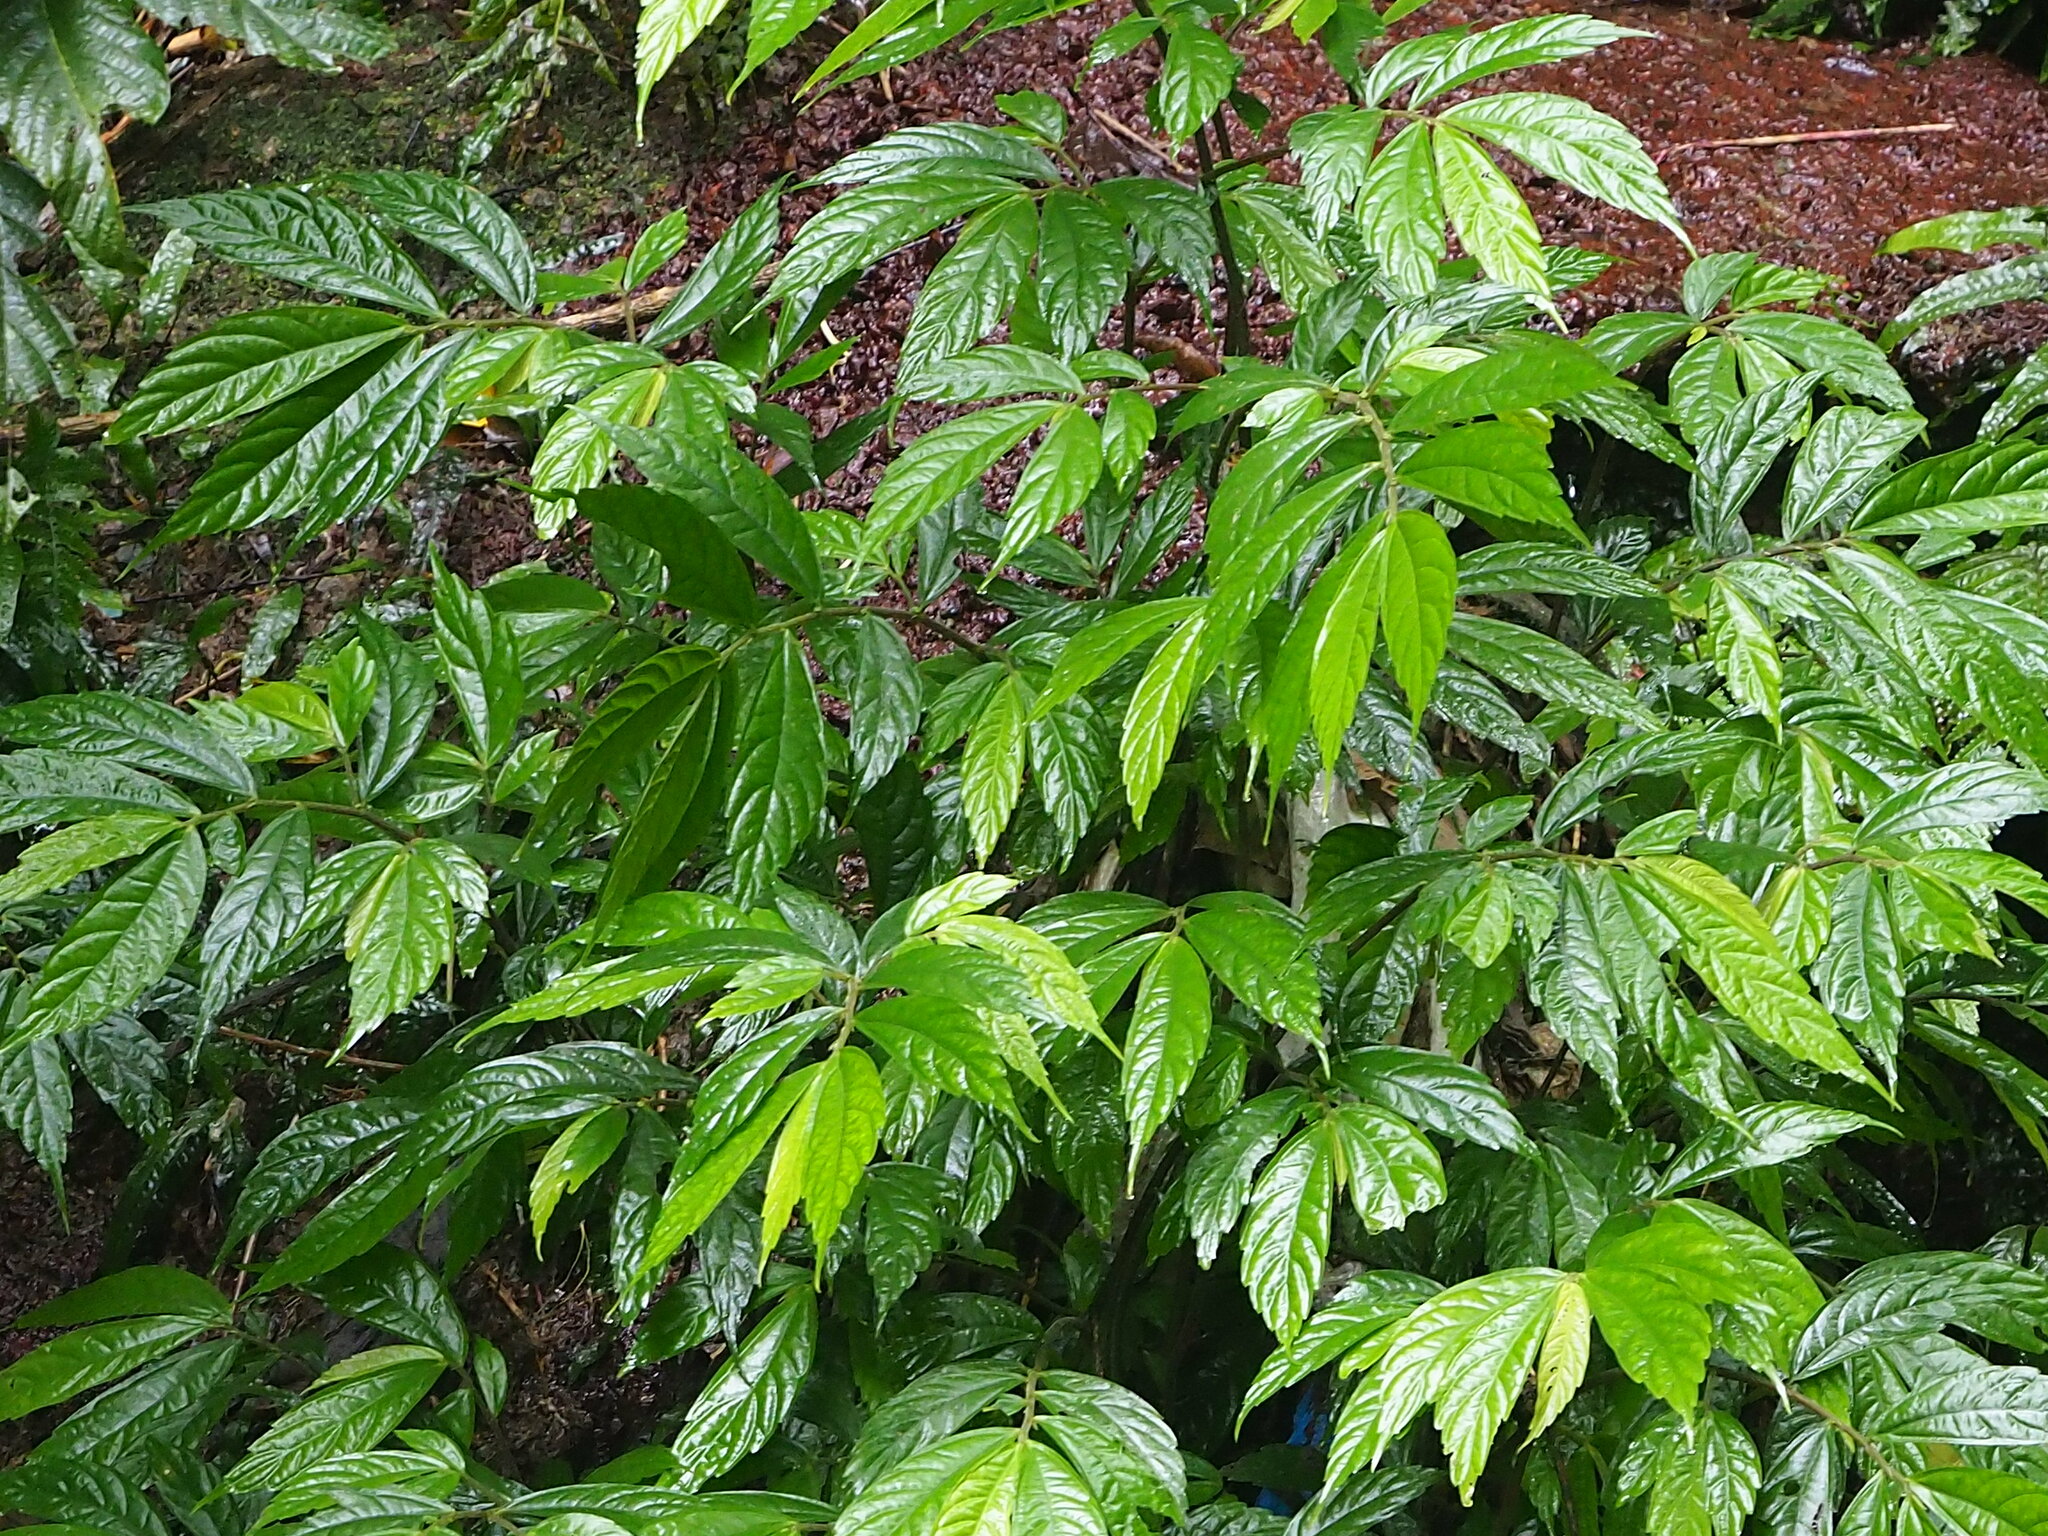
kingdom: Plantae
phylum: Tracheophyta
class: Magnoliopsida
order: Rosales
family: Urticaceae
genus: Elatostema
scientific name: Elatostema lineolatum
